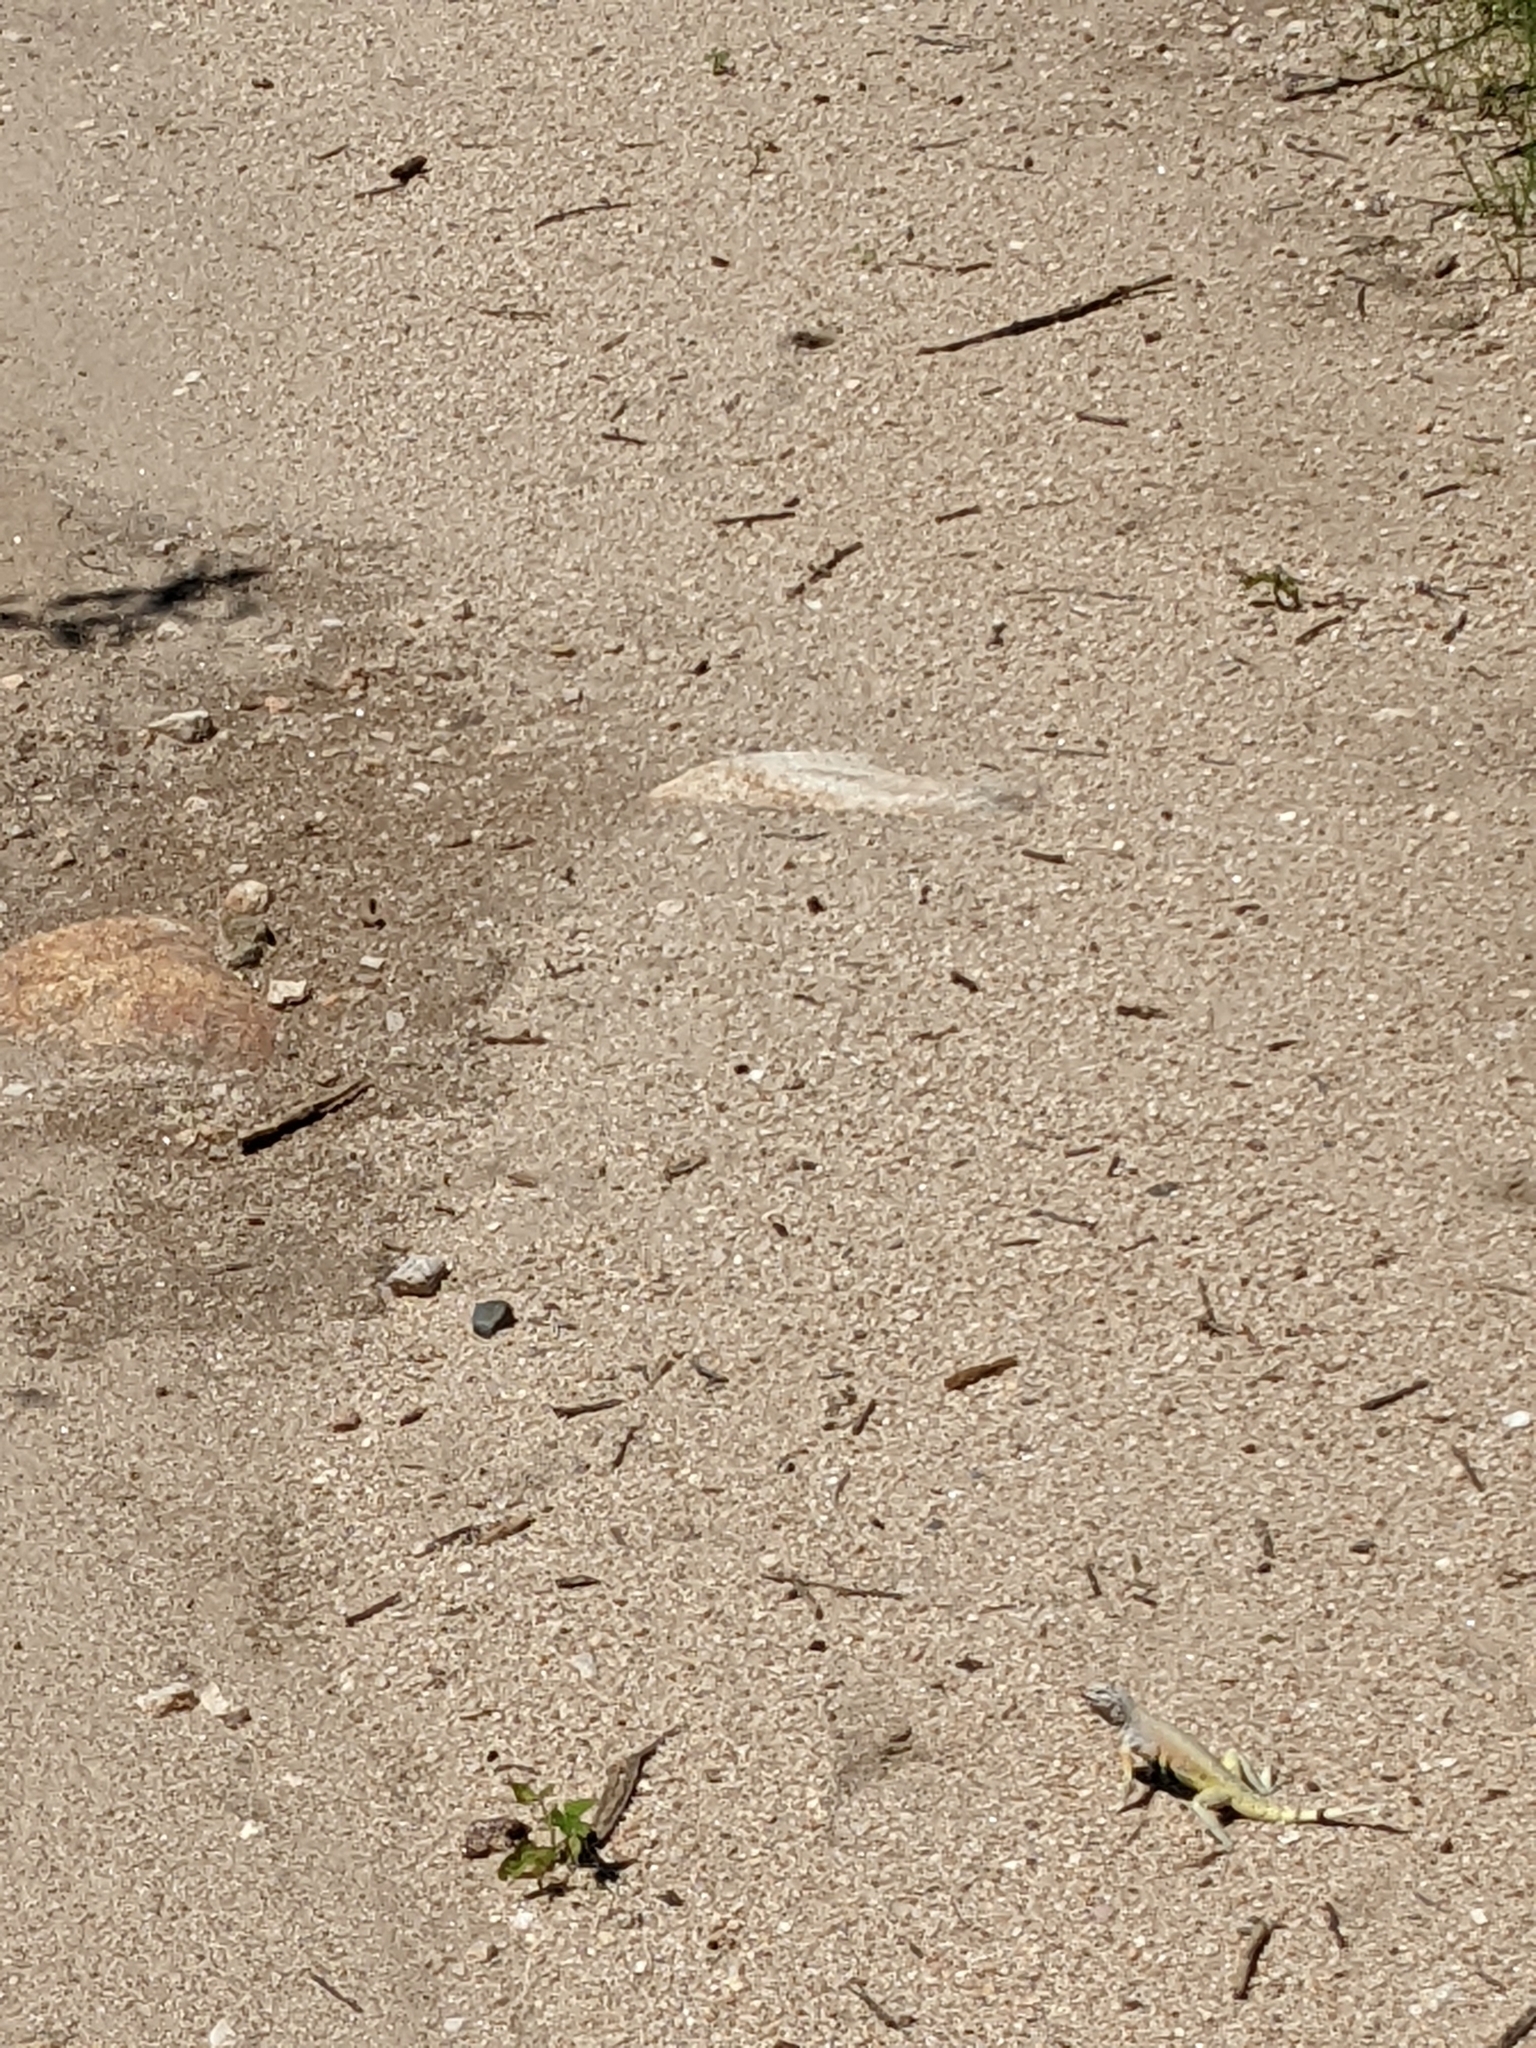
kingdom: Animalia
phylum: Chordata
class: Squamata
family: Phrynosomatidae
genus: Callisaurus
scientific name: Callisaurus draconoides
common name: Zebra-tailed lizard
